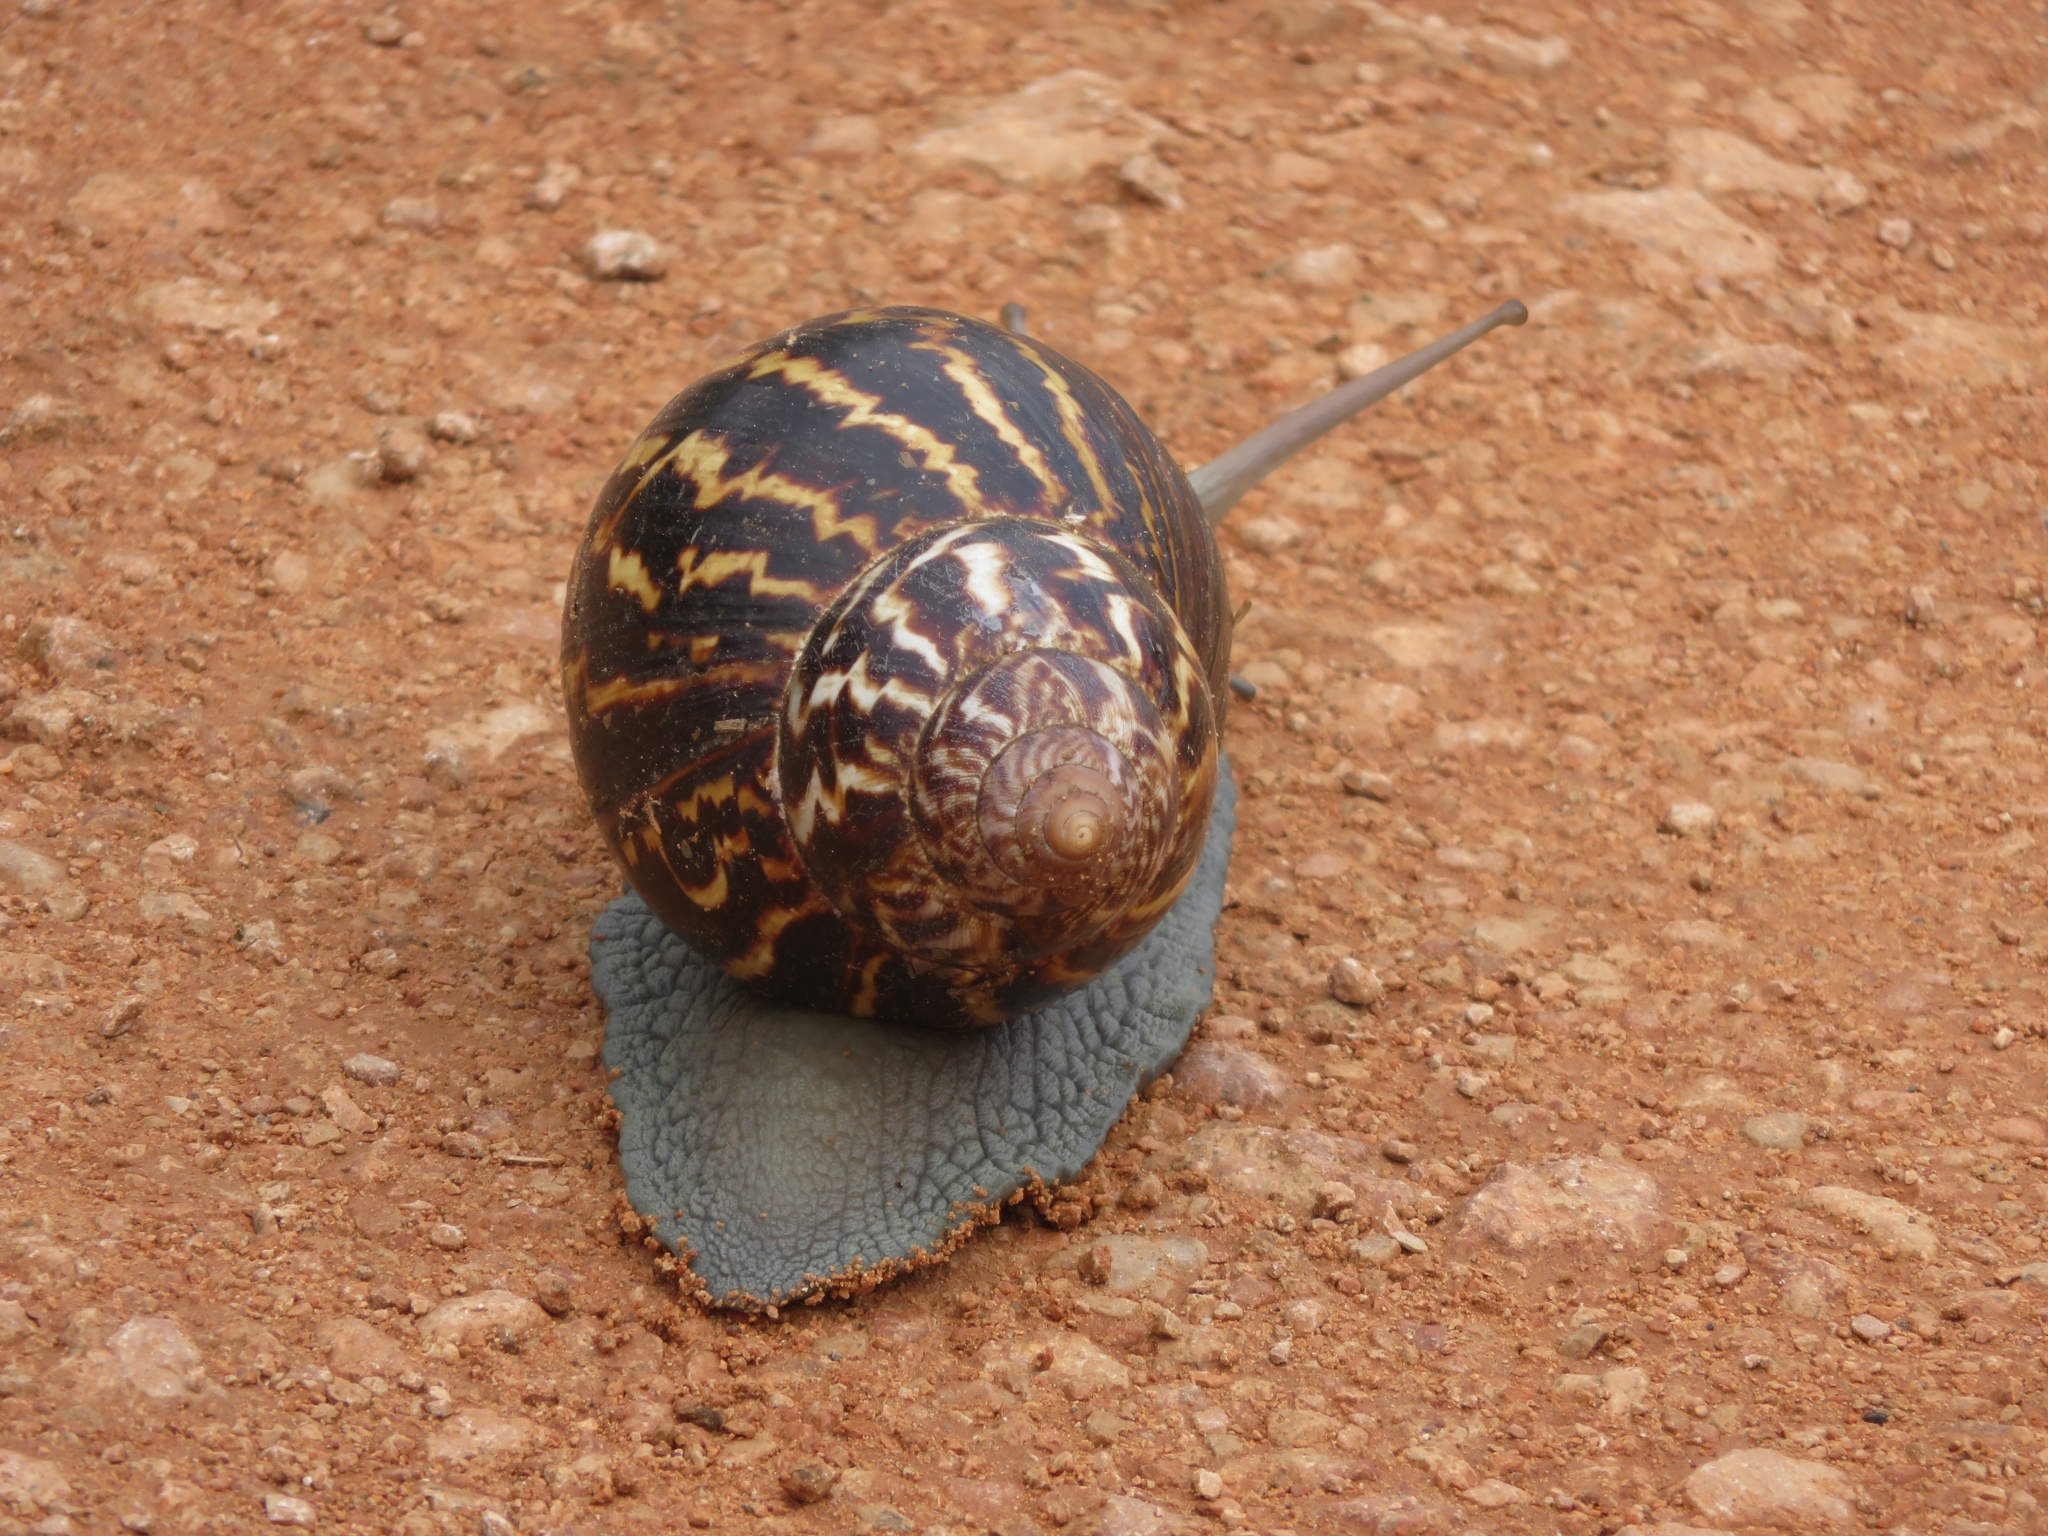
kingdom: Animalia
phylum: Mollusca
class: Gastropoda
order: Stylommatophora
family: Achatinidae
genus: Cochlitoma
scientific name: Cochlitoma zebra
